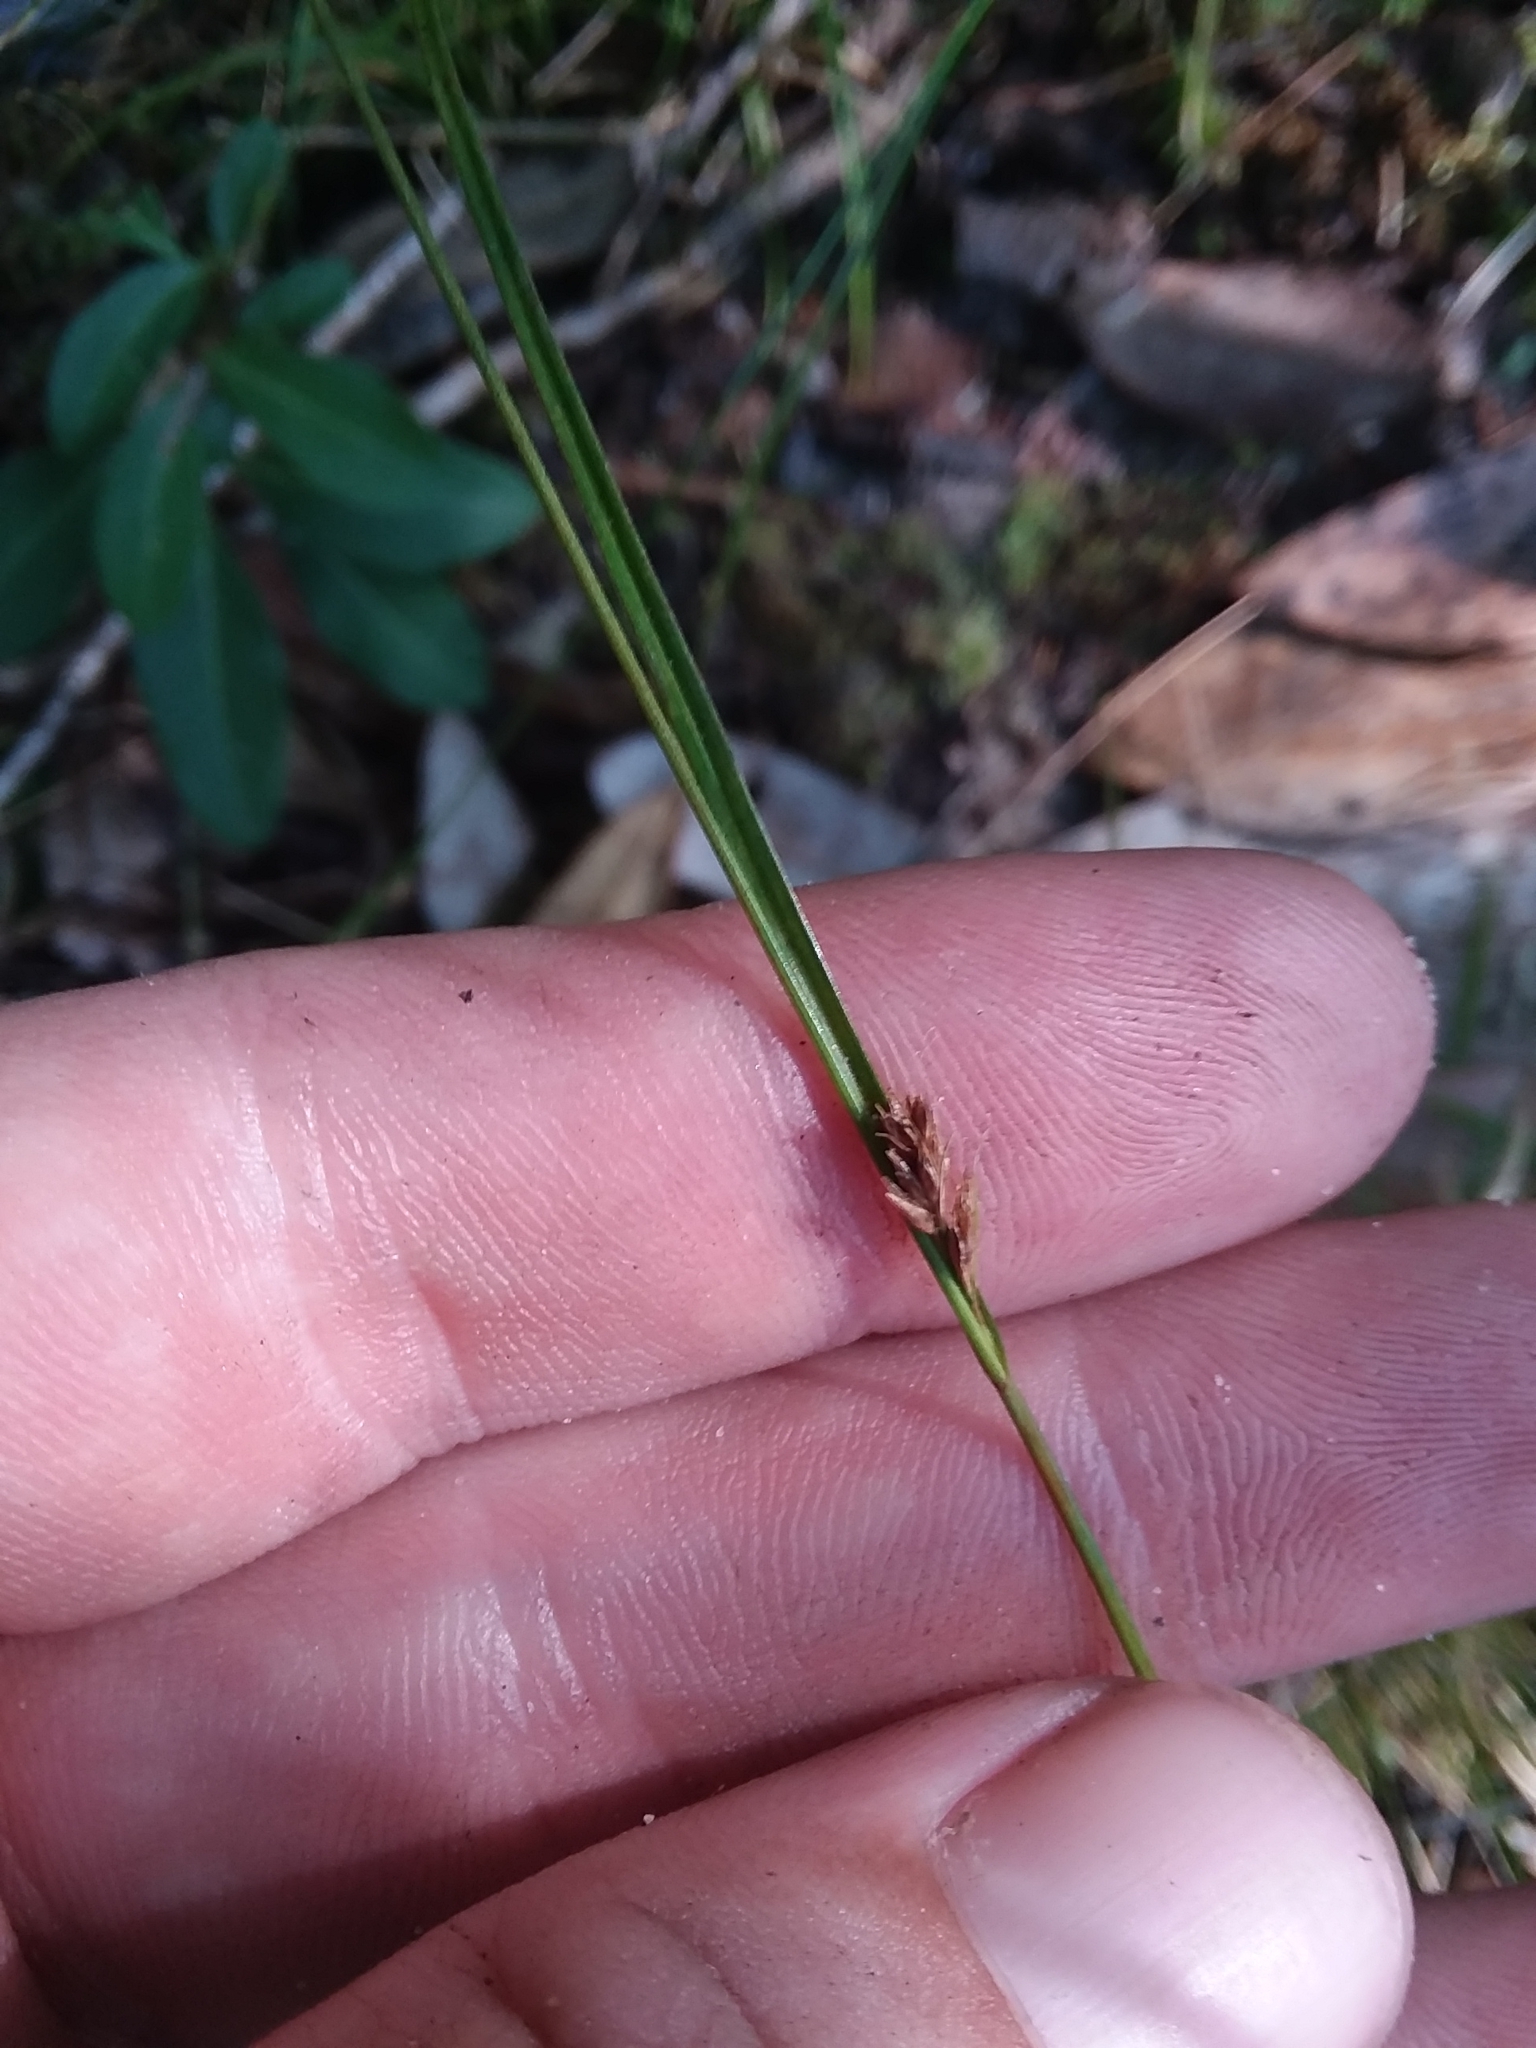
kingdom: Plantae
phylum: Tracheophyta
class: Liliopsida
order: Poales
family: Cyperaceae
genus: Rhynchospora
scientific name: Rhynchospora leptocarpa
